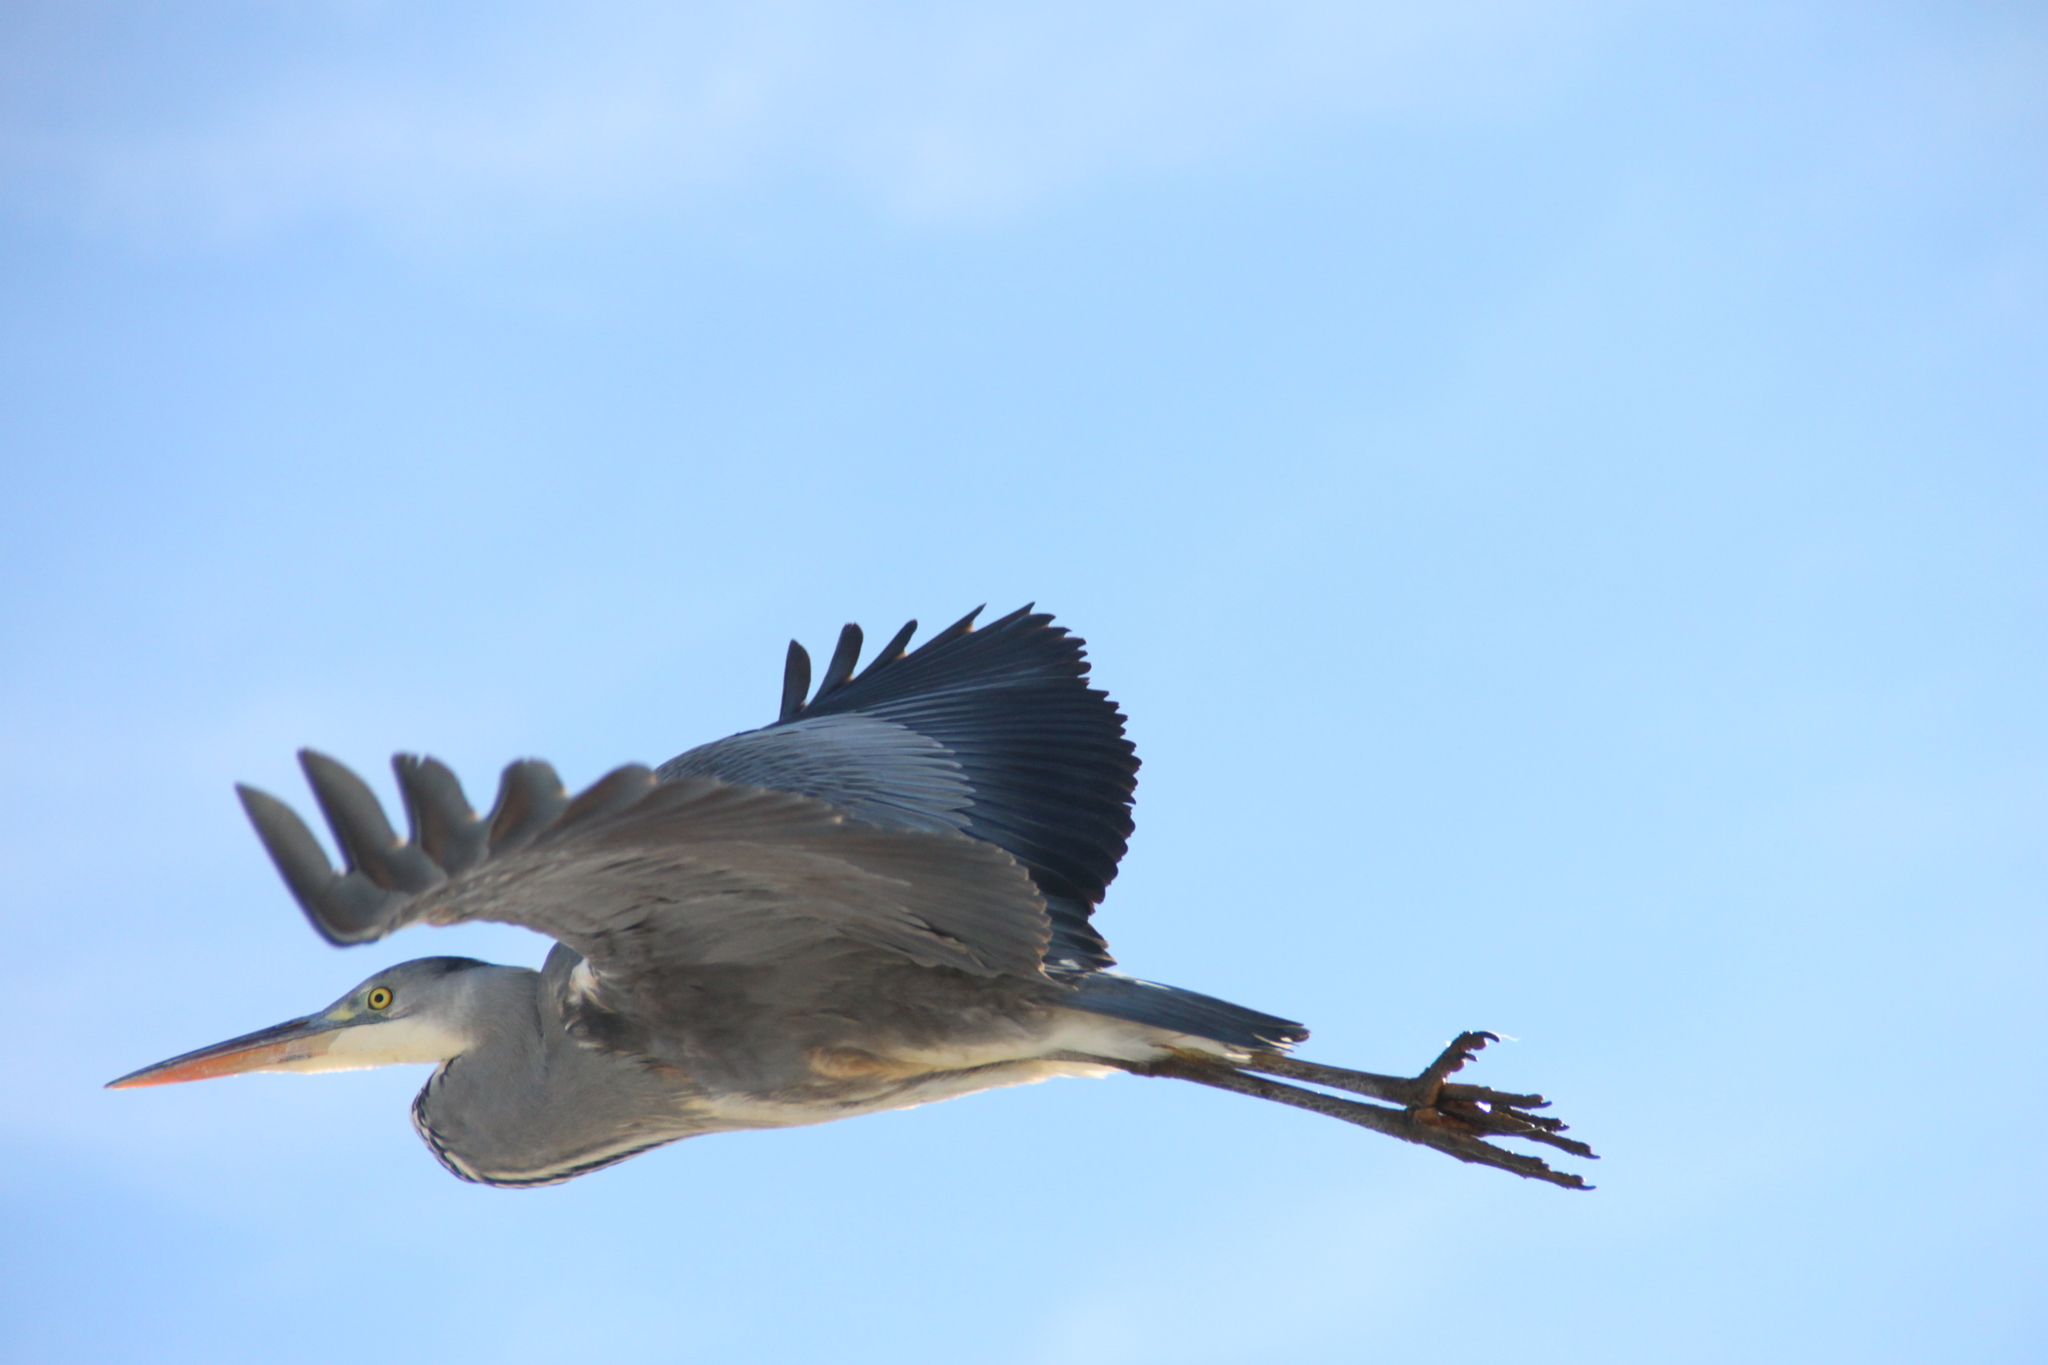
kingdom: Animalia
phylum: Chordata
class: Aves
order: Pelecaniformes
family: Ardeidae
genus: Ardea
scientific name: Ardea cinerea
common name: Grey heron
